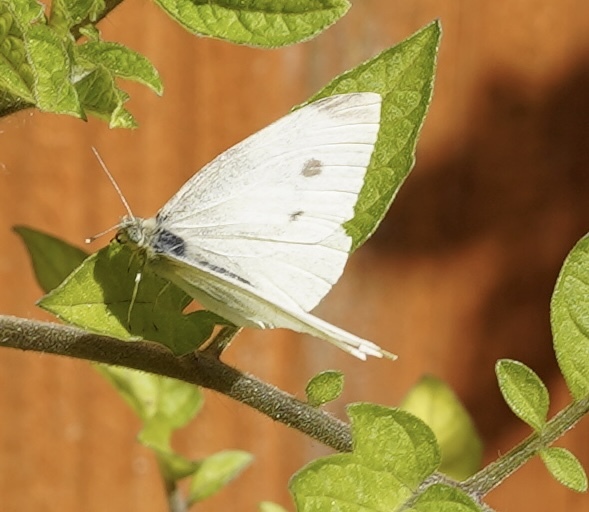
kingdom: Animalia
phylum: Arthropoda
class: Insecta
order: Lepidoptera
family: Pieridae
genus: Pieris
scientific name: Pieris rapae
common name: Small white
